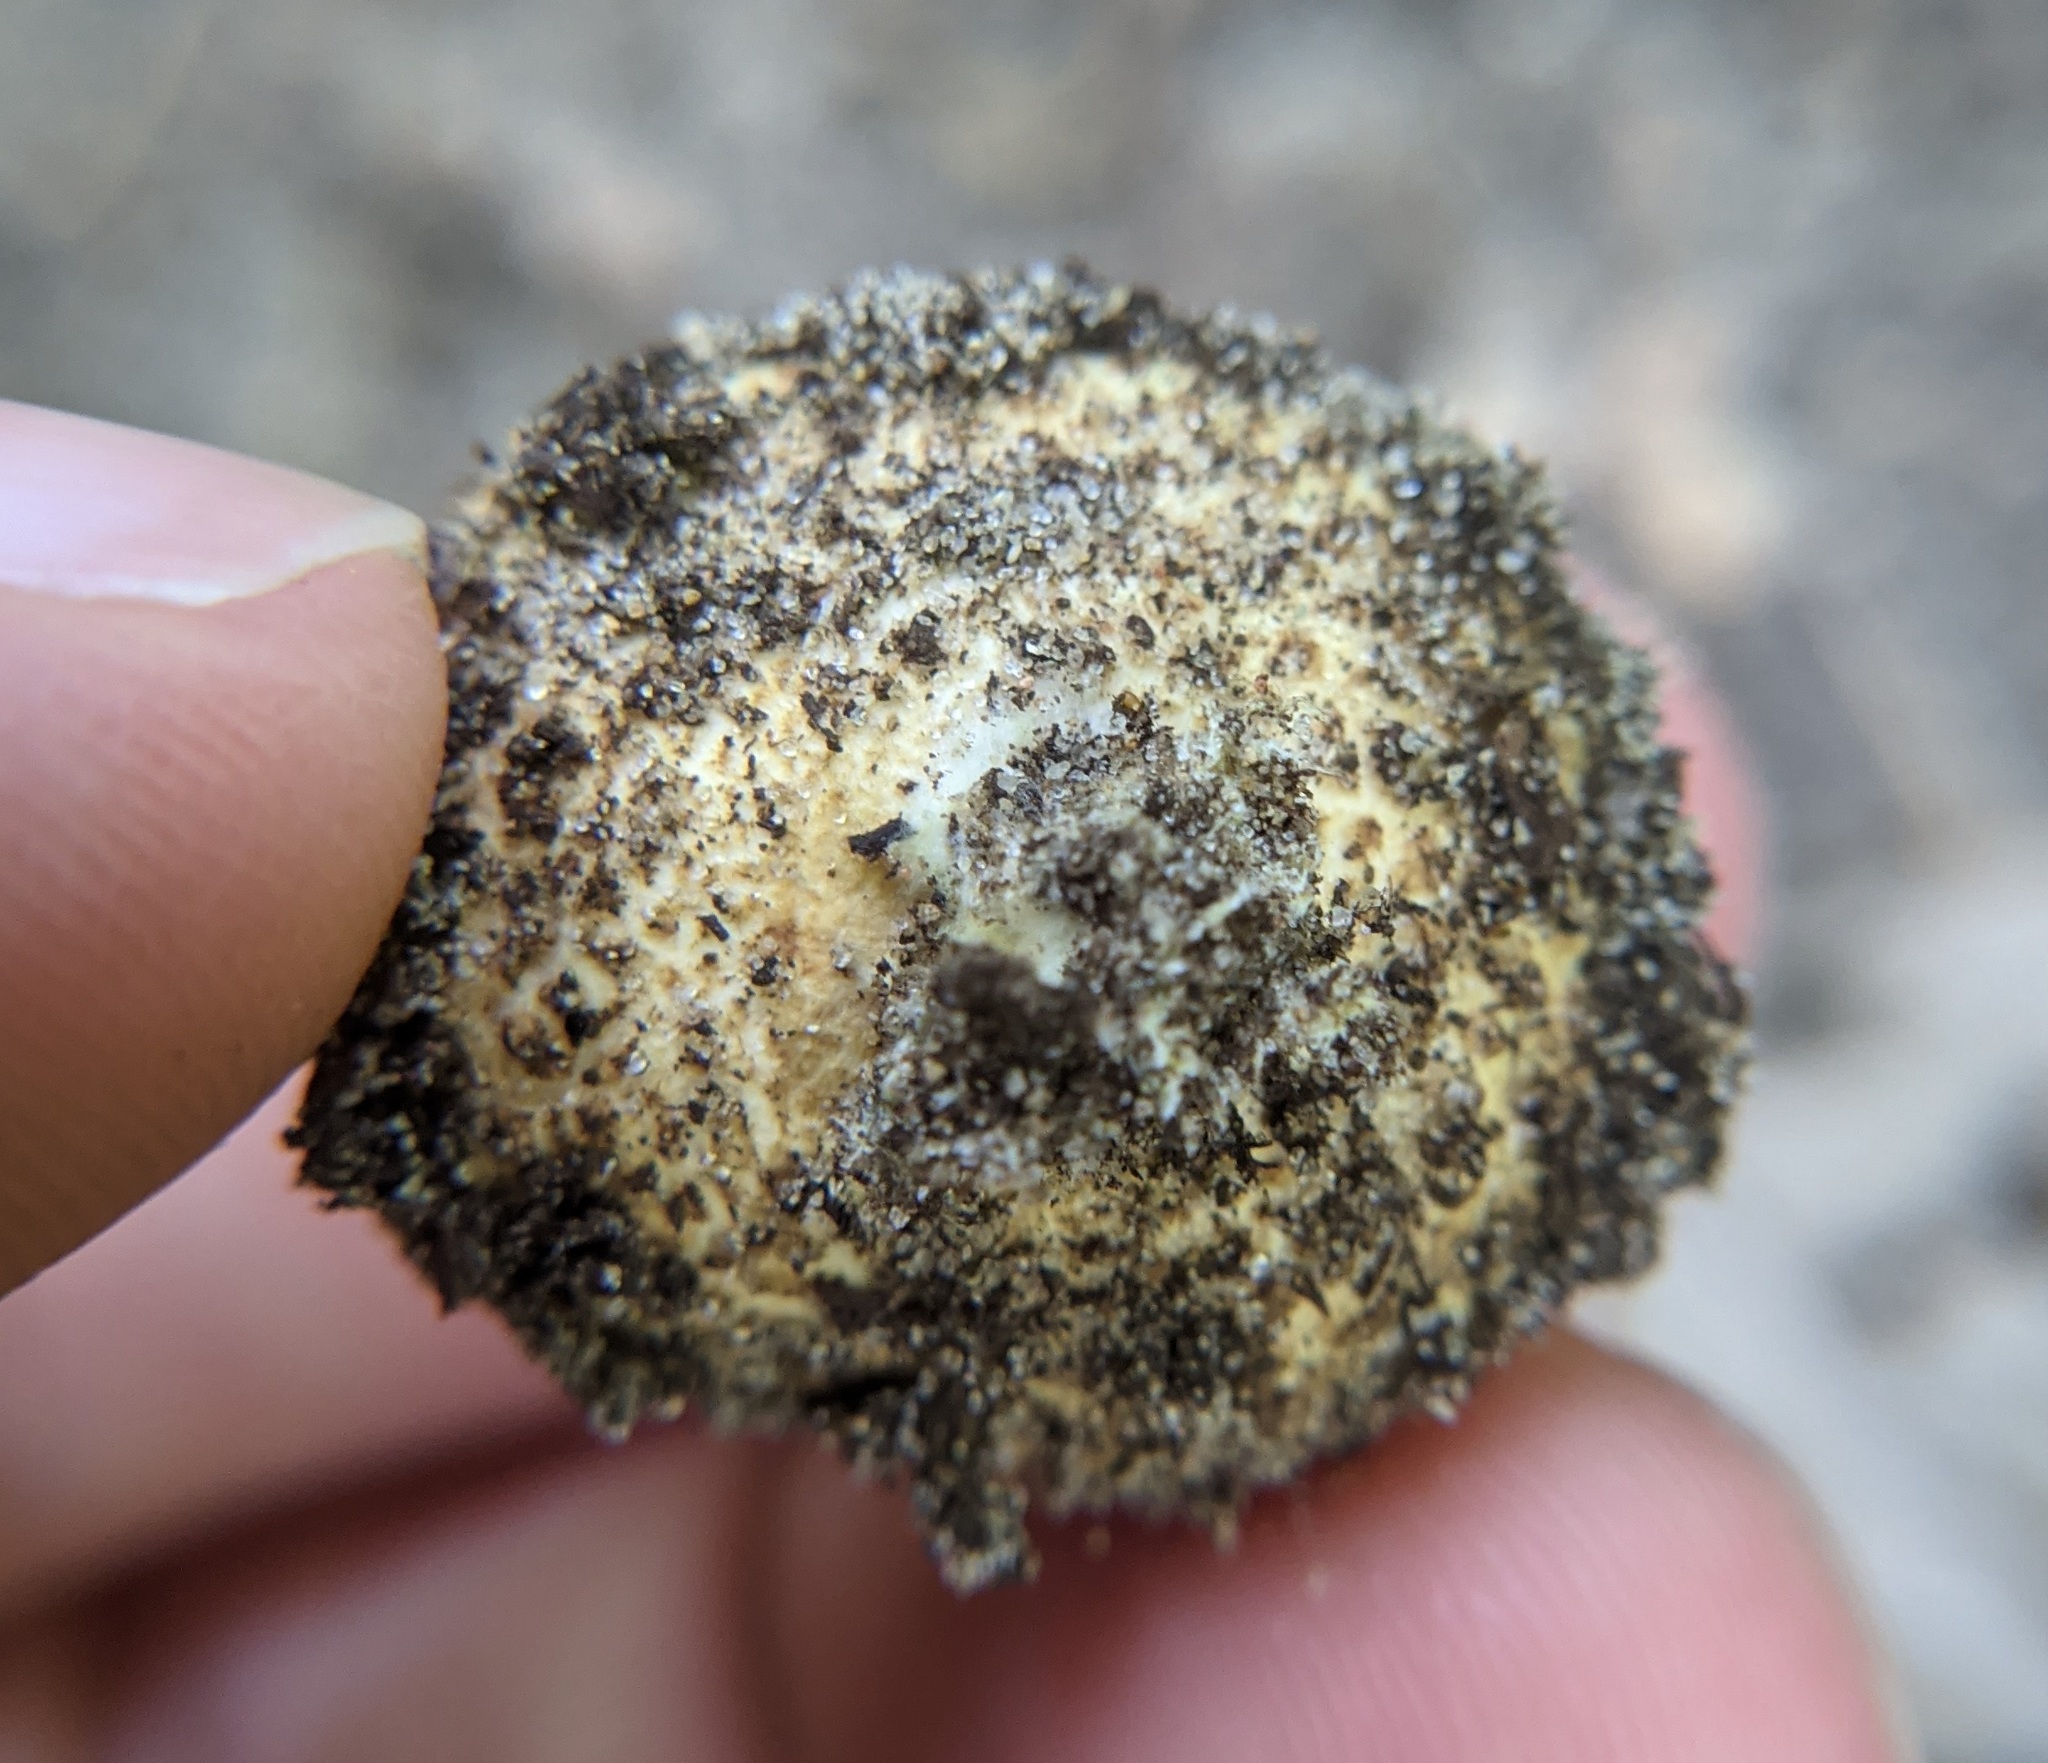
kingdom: Fungi
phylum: Basidiomycota
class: Agaricomycetes
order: Boletales
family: Sclerodermataceae
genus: Scleroderma
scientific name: Scleroderma citrinum
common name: Common earthball
